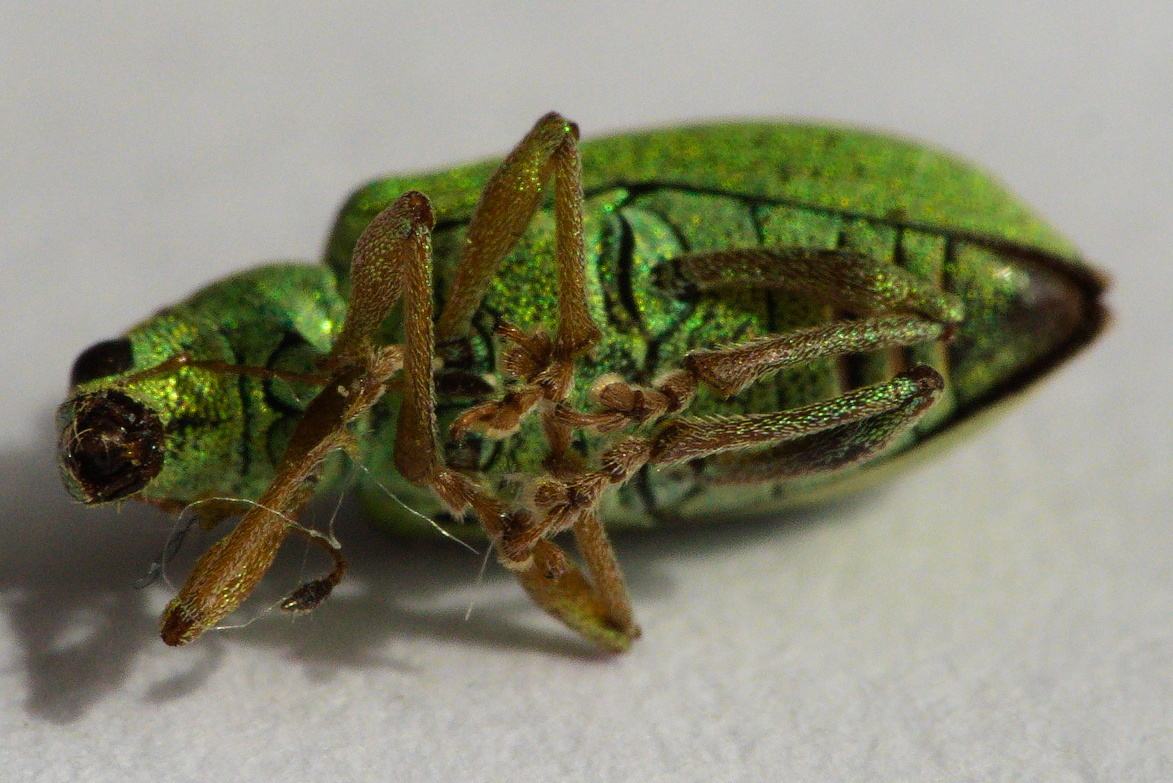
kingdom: Animalia
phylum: Arthropoda
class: Insecta
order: Coleoptera
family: Curculionidae
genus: Polydrusus
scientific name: Polydrusus formosus
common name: Weevil
